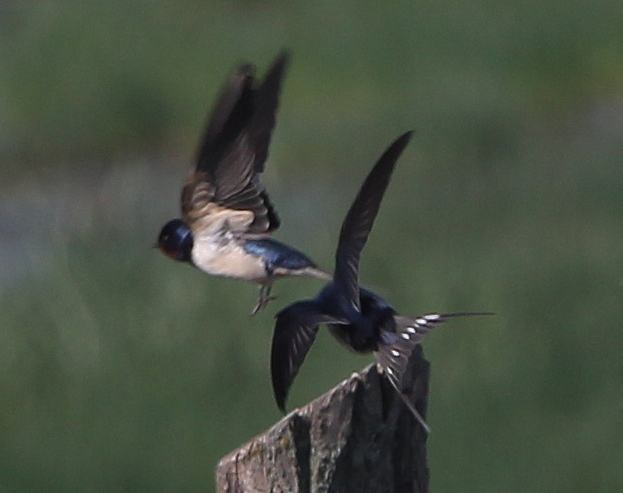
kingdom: Animalia
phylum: Chordata
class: Aves
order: Passeriformes
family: Hirundinidae
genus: Hirundo
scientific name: Hirundo rustica
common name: Barn swallow
